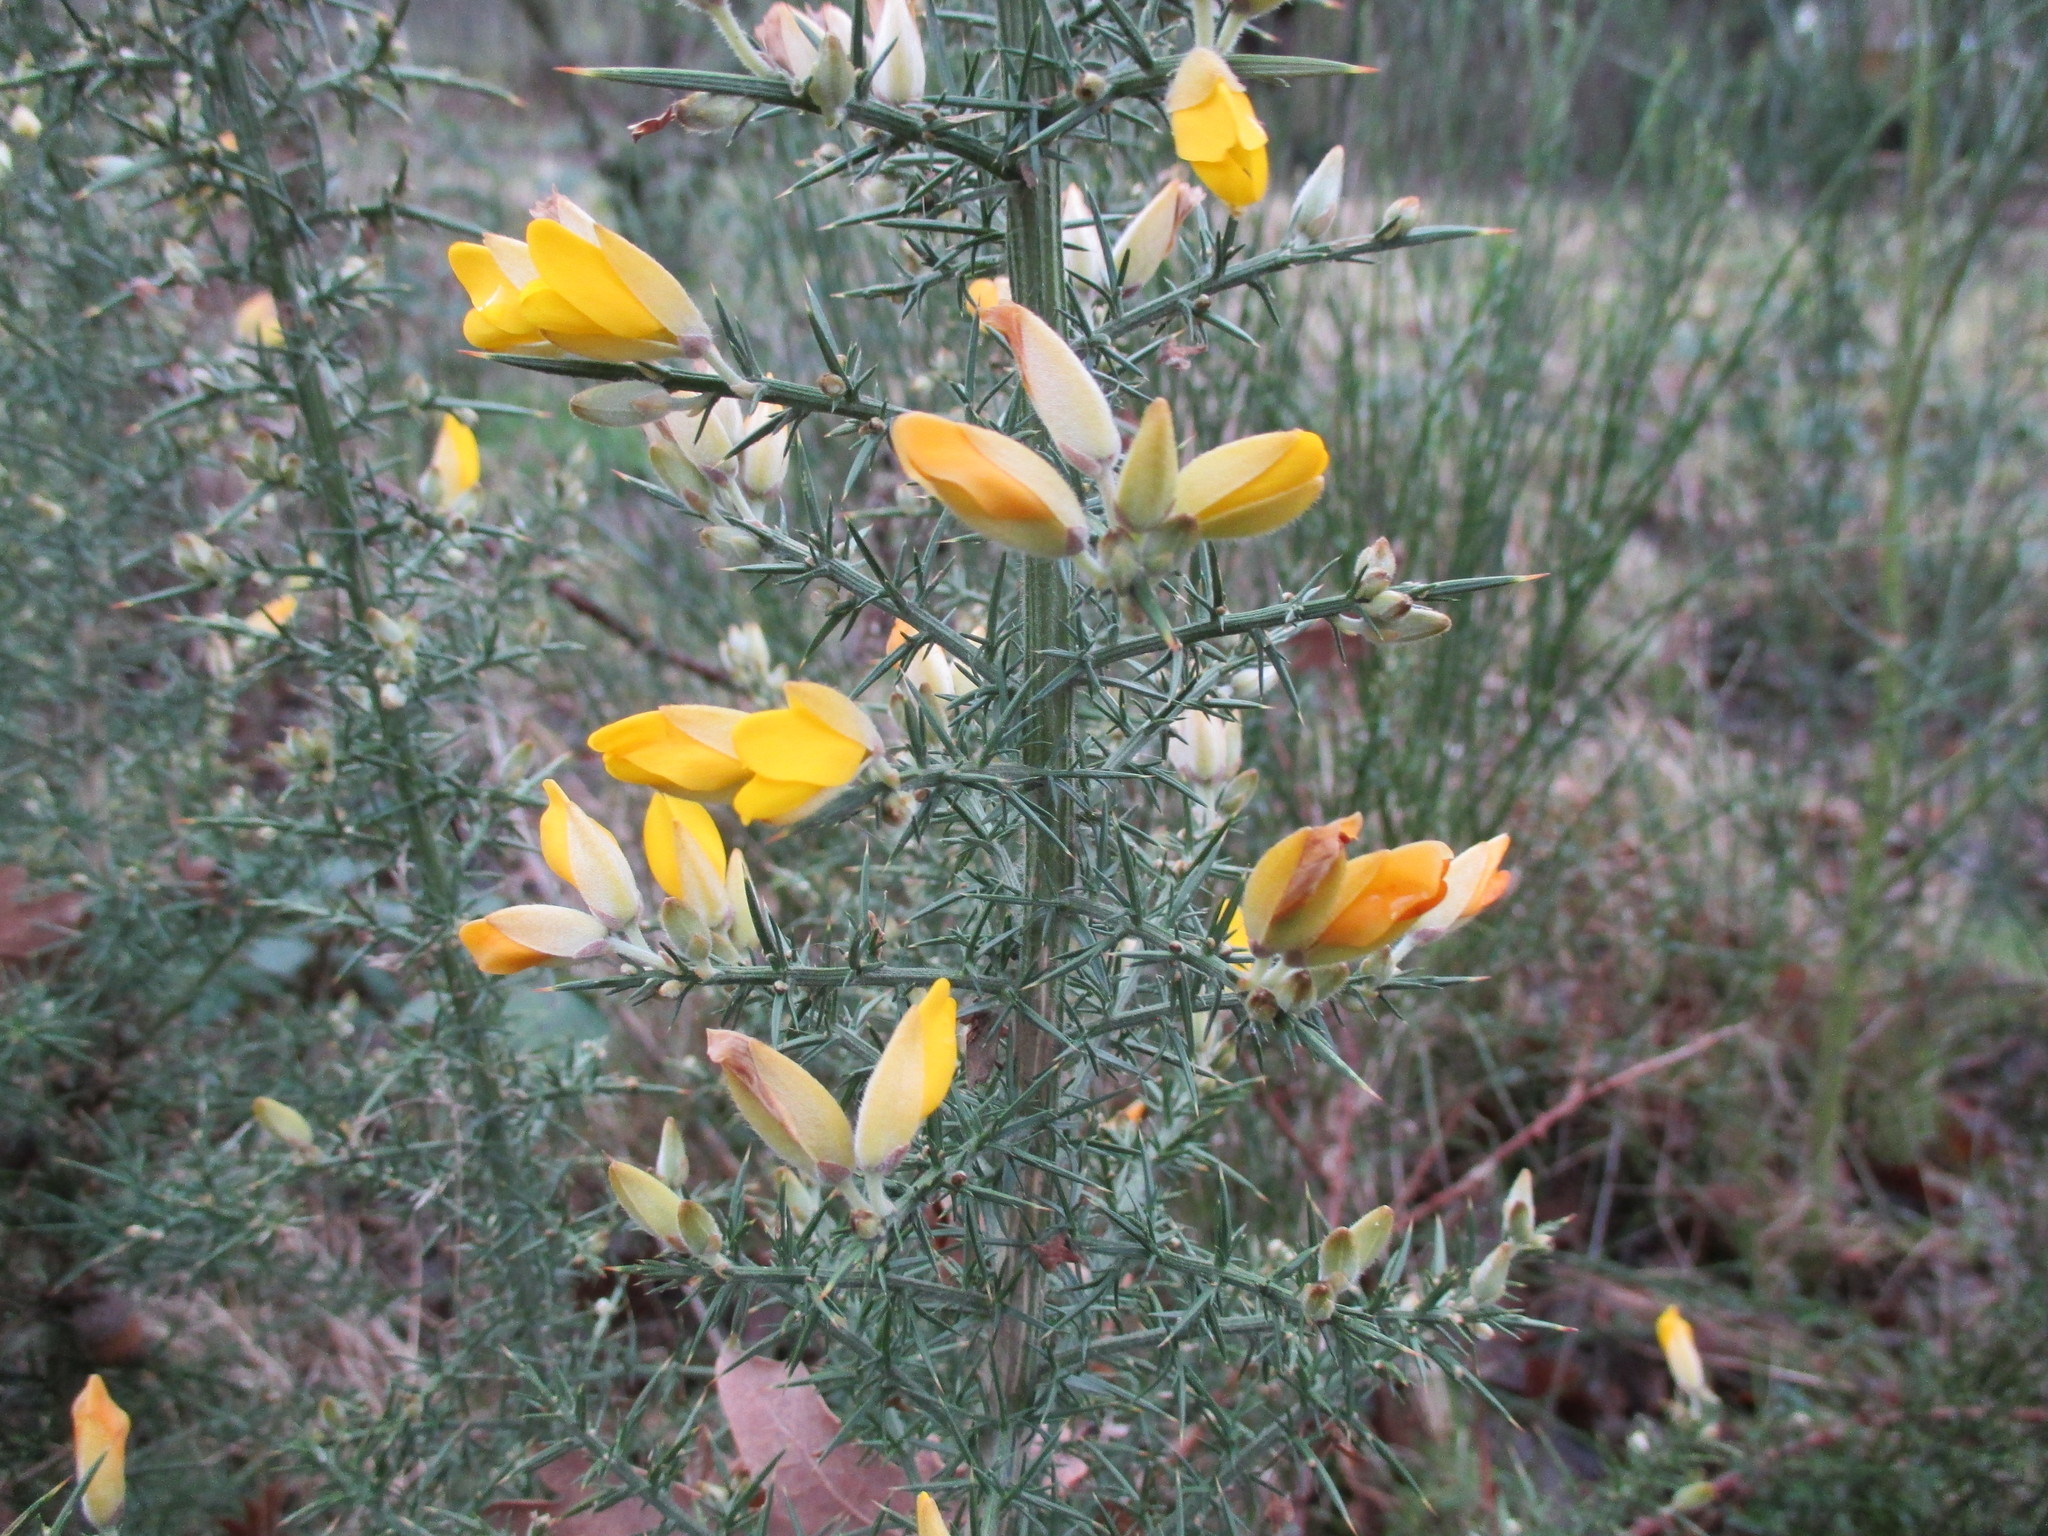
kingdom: Plantae
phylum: Tracheophyta
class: Magnoliopsida
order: Fabales
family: Fabaceae
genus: Ulex
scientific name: Ulex europaeus
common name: Common gorse
